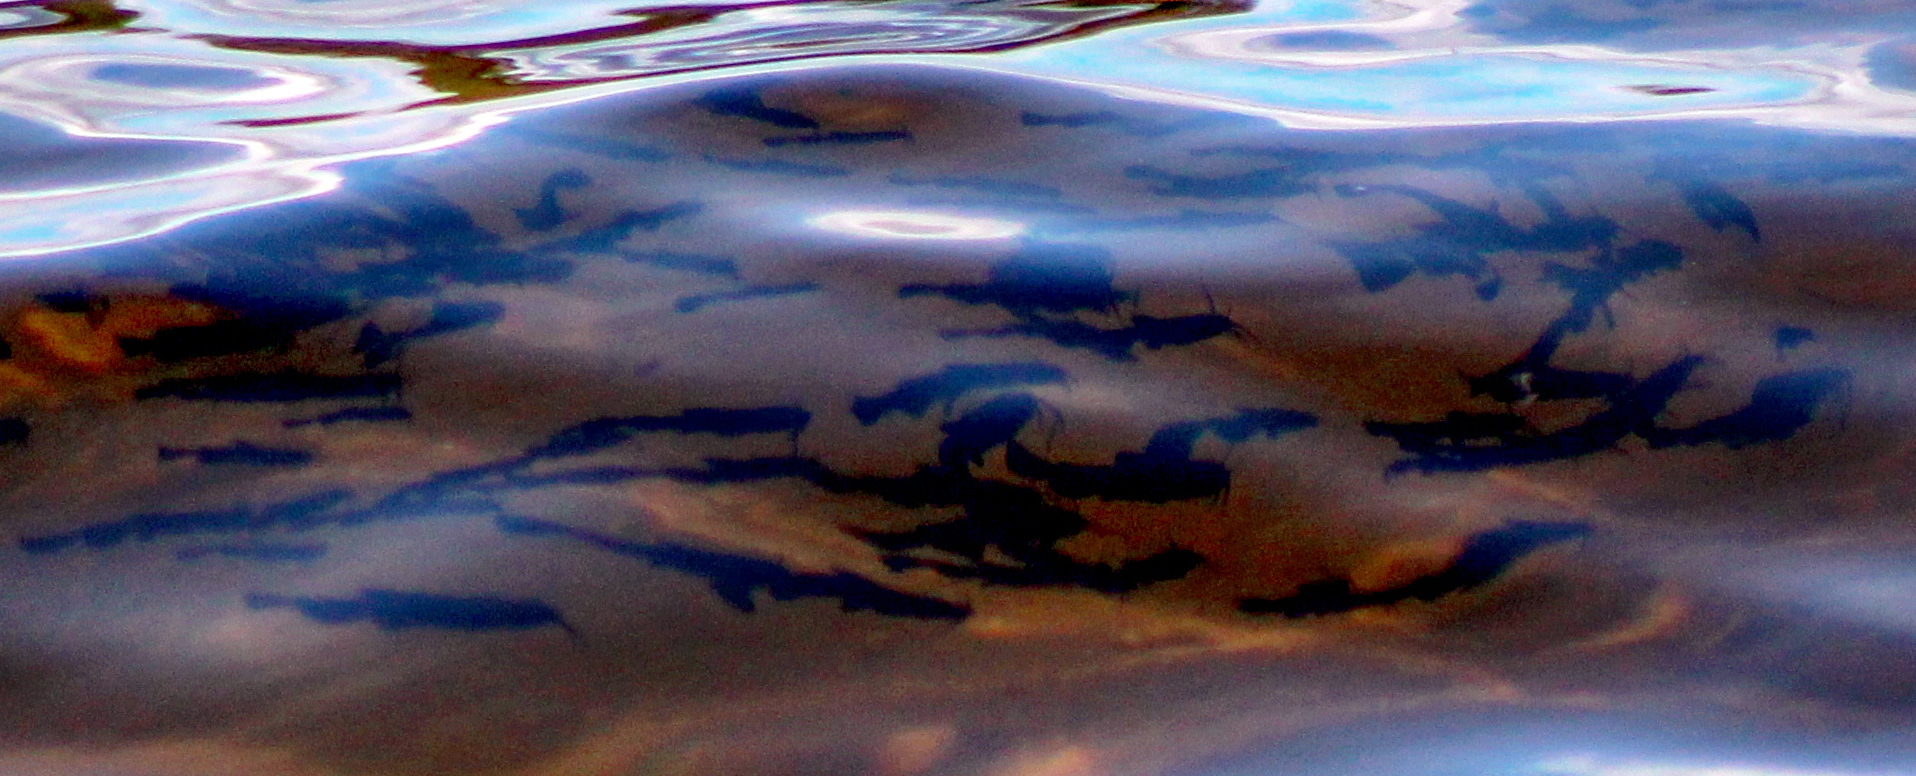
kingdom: Animalia
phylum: Chordata
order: Siluriformes
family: Ictaluridae
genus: Ameiurus
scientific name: Ameiurus
